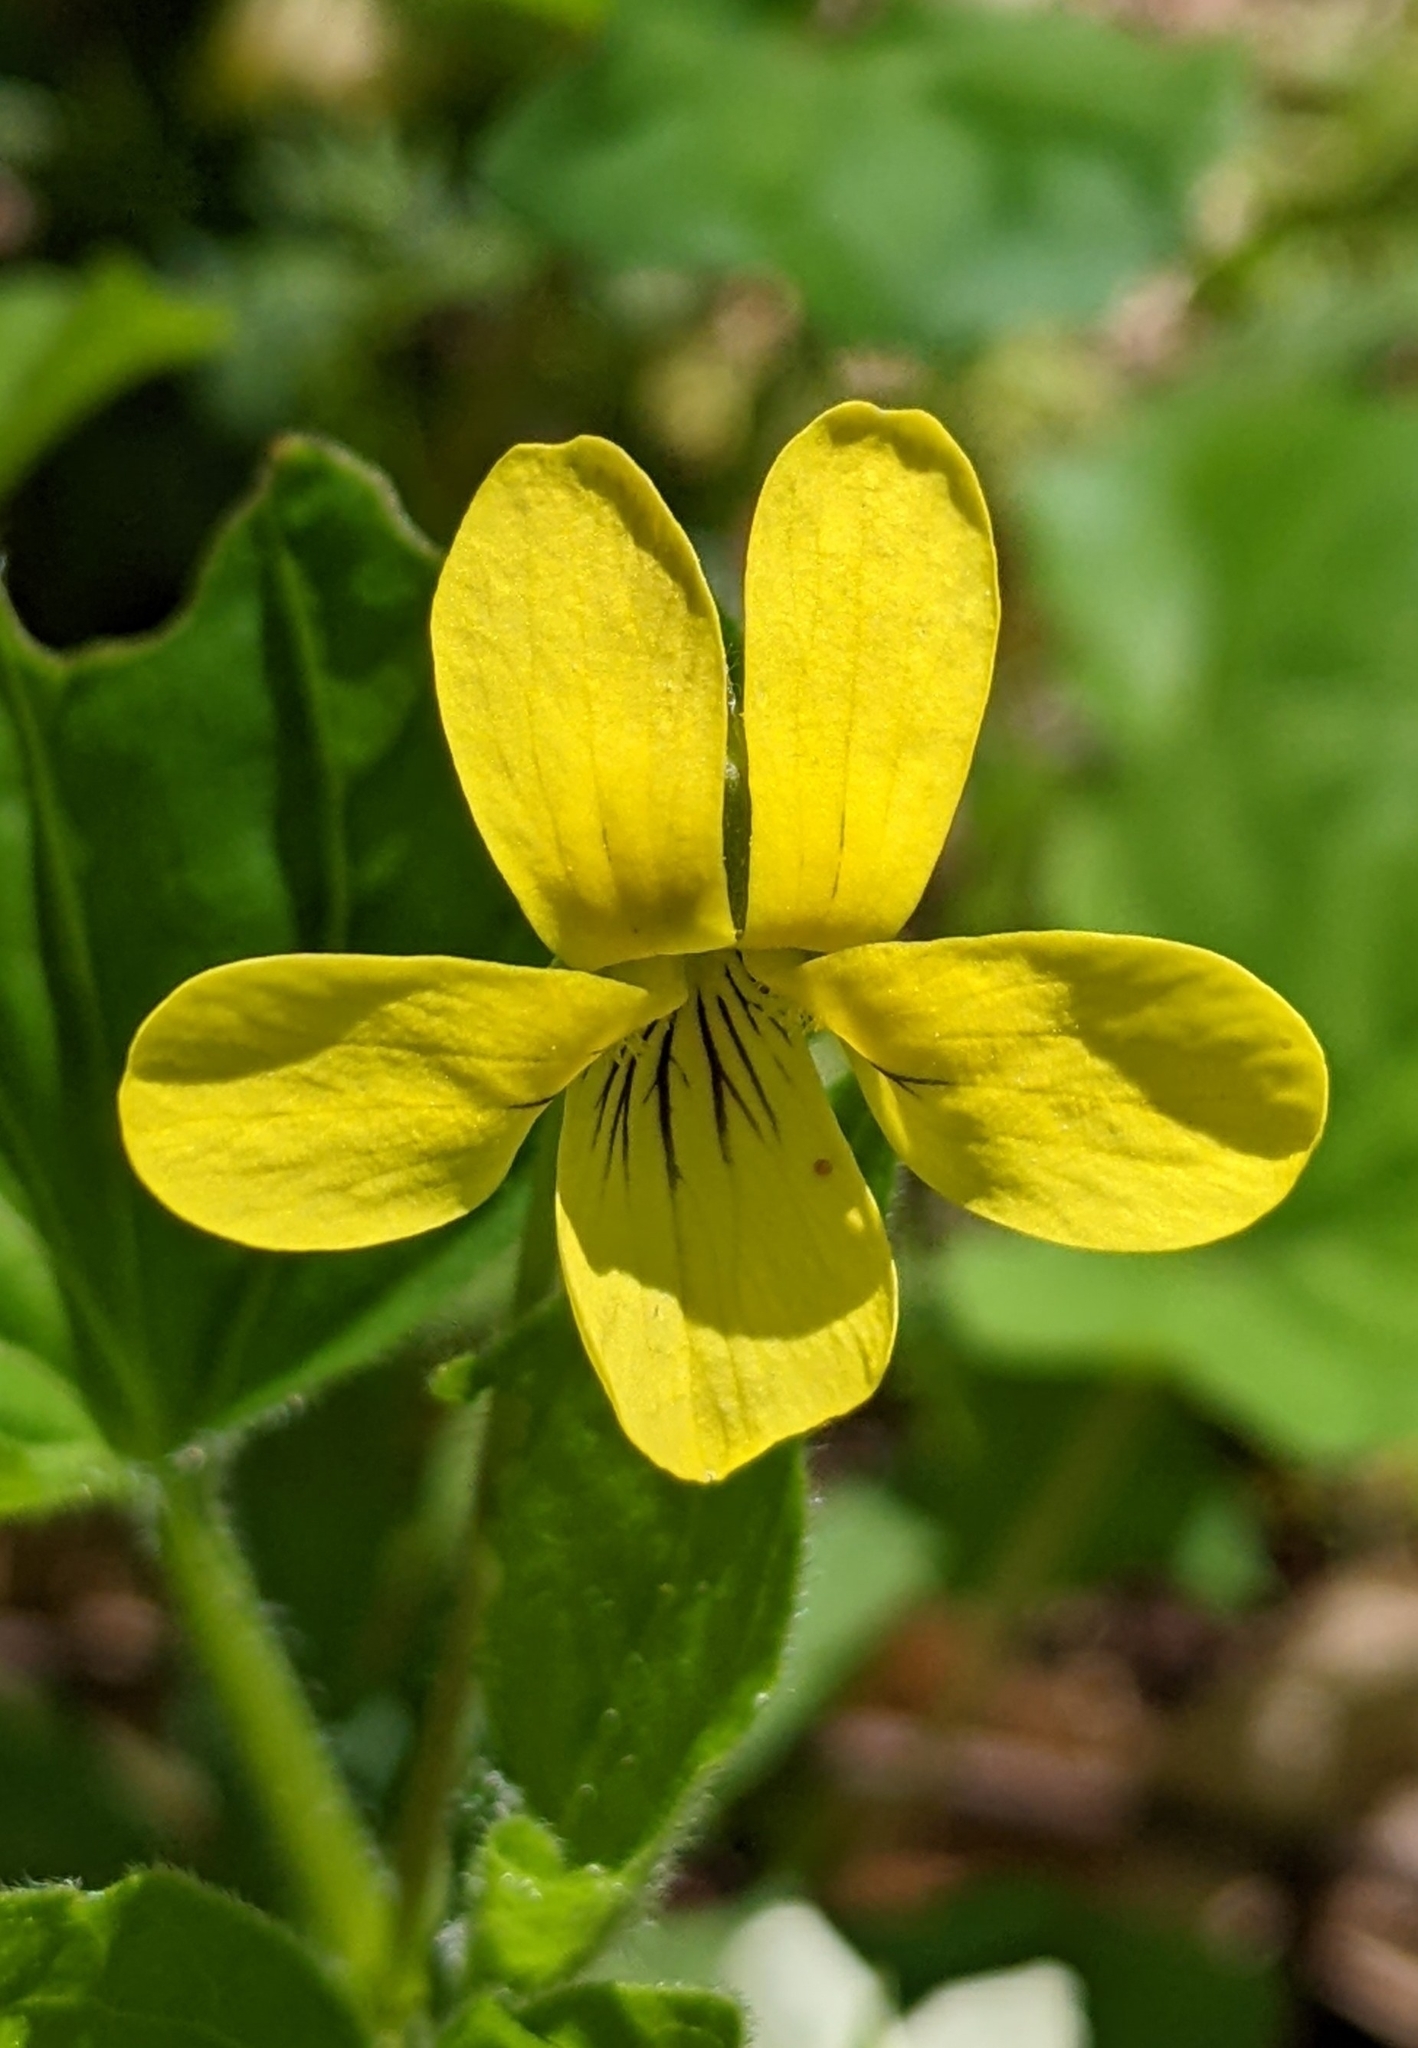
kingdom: Plantae
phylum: Tracheophyta
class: Magnoliopsida
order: Malpighiales
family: Violaceae
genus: Viola
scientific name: Viola eriocarpa
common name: Smooth yellow violet
